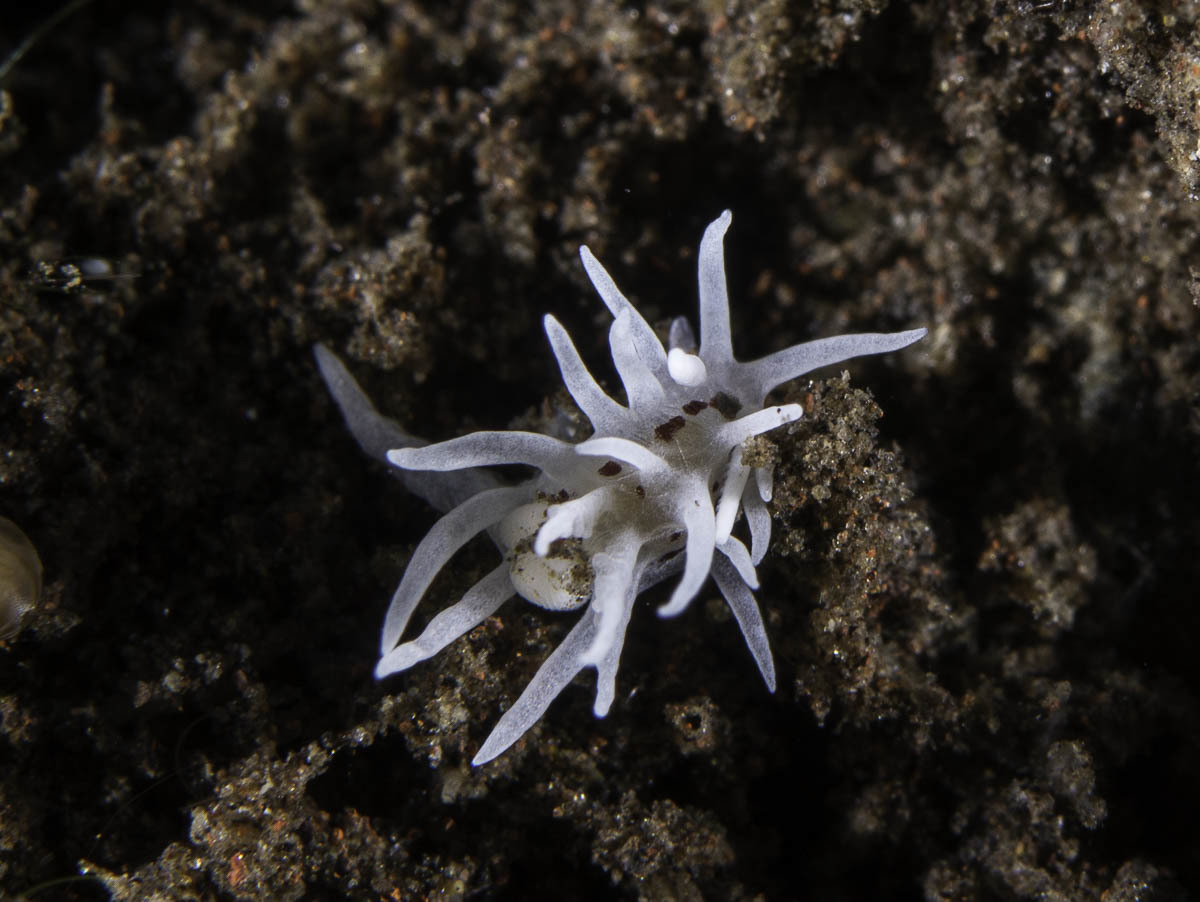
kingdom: Animalia
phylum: Mollusca
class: Gastropoda
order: Nudibranchia
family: Goniodorididae
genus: Okenia
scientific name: Okenia
